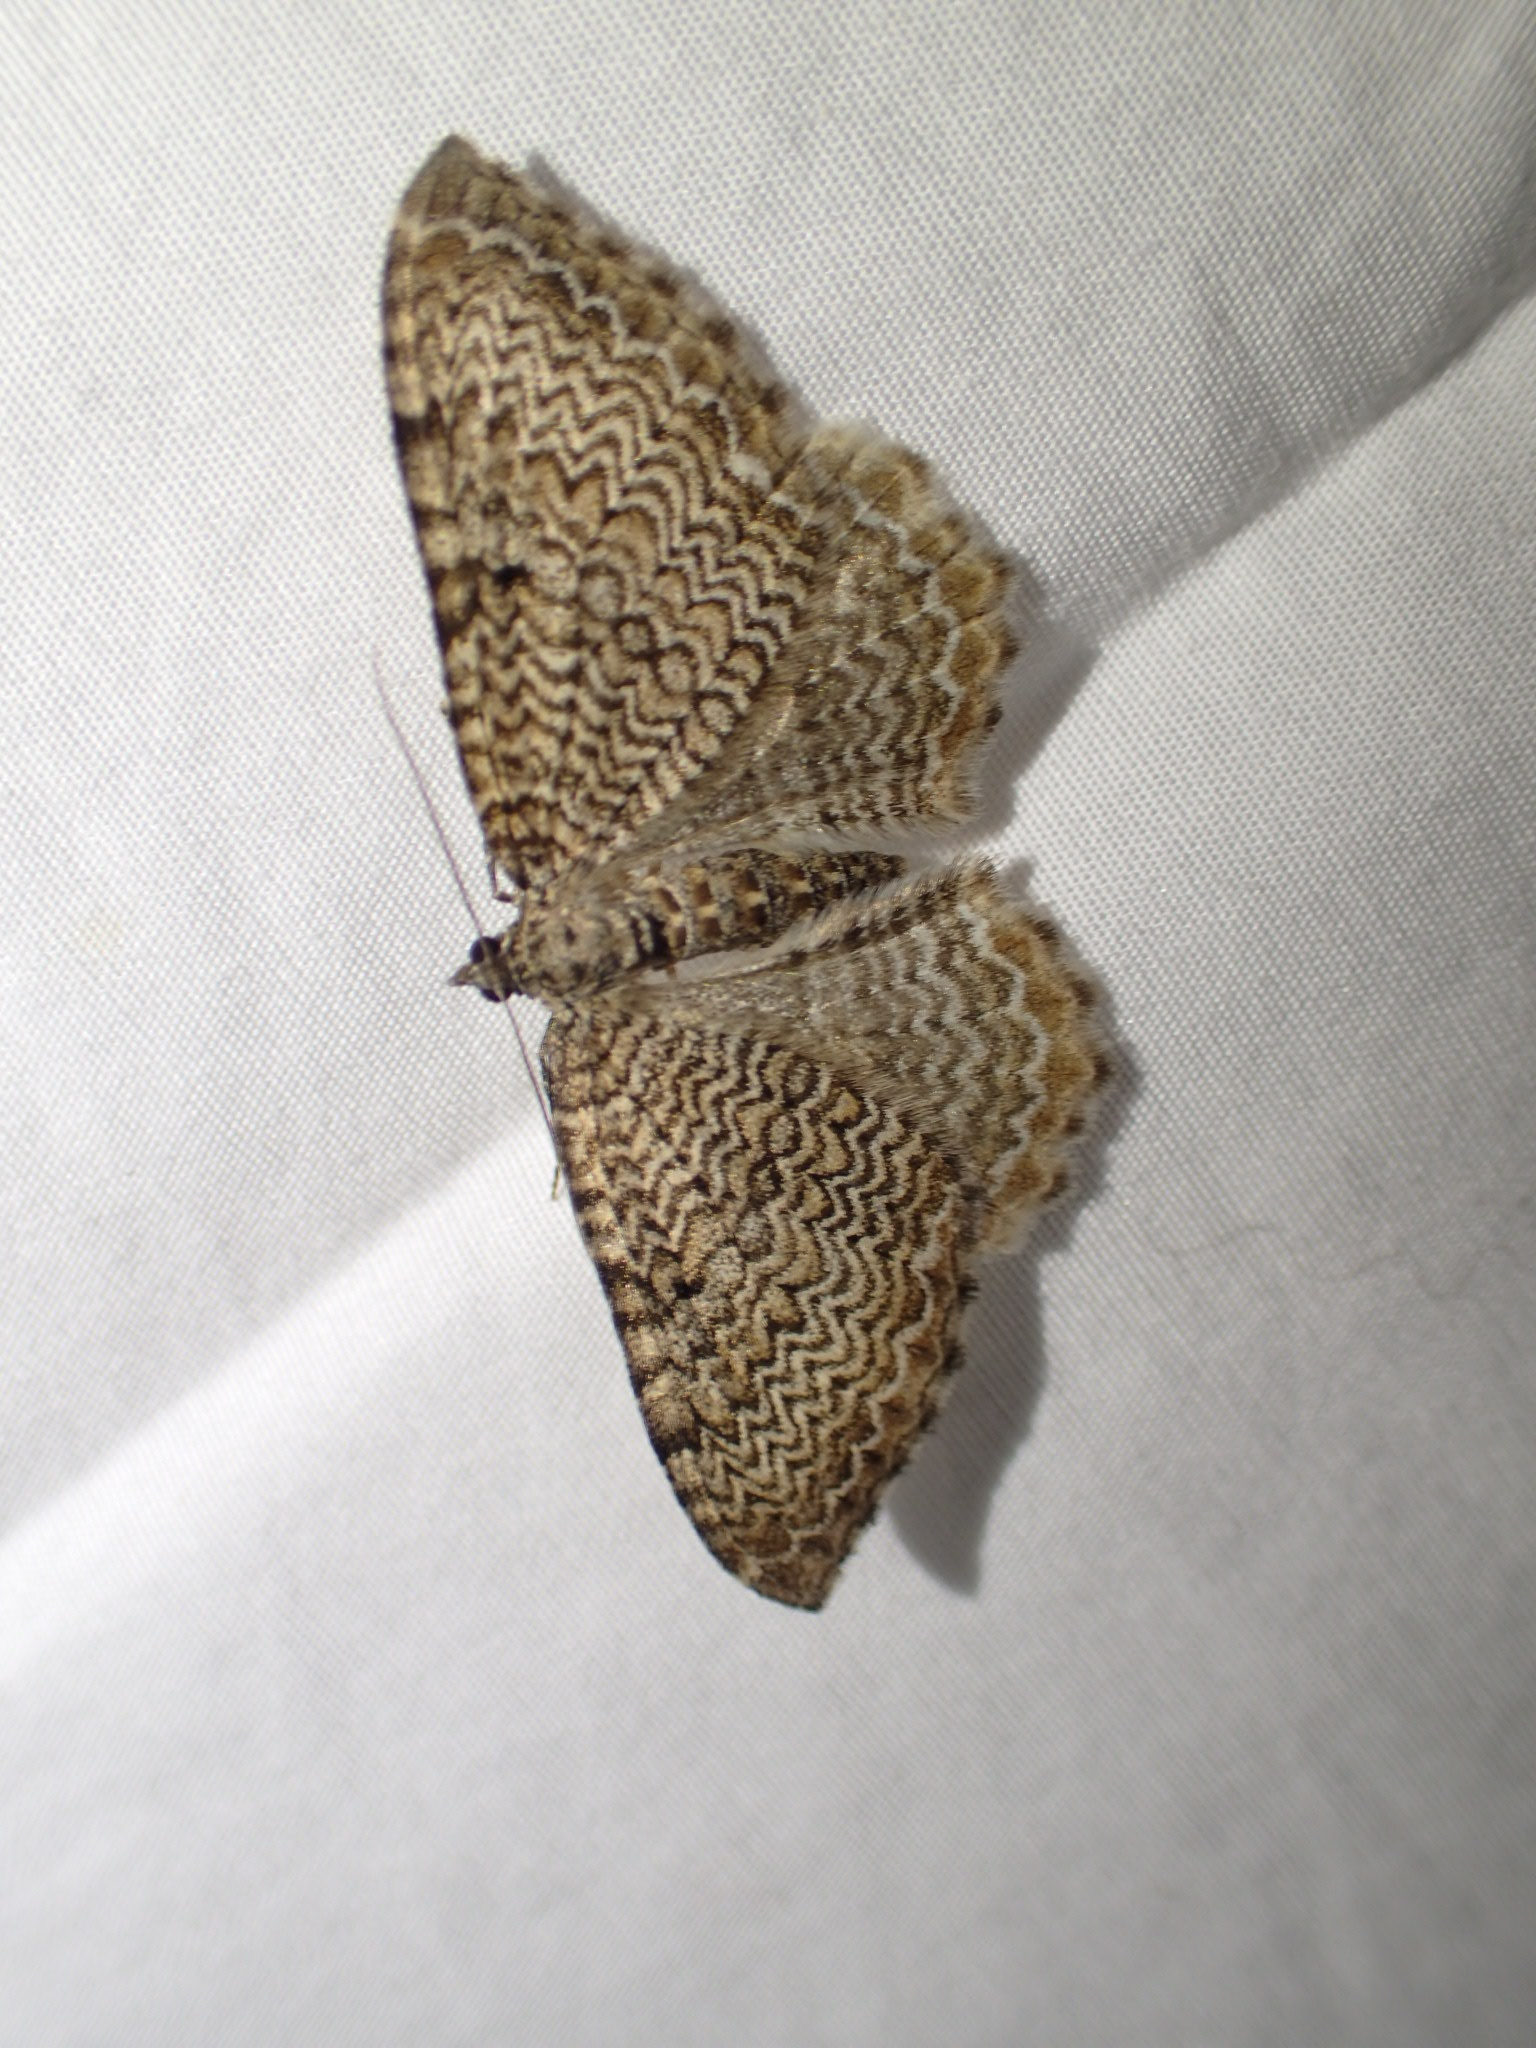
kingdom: Animalia
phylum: Arthropoda
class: Insecta
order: Lepidoptera
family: Geometridae
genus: Rheumaptera
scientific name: Rheumaptera prunivorata
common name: Cherry scallop shell moth
